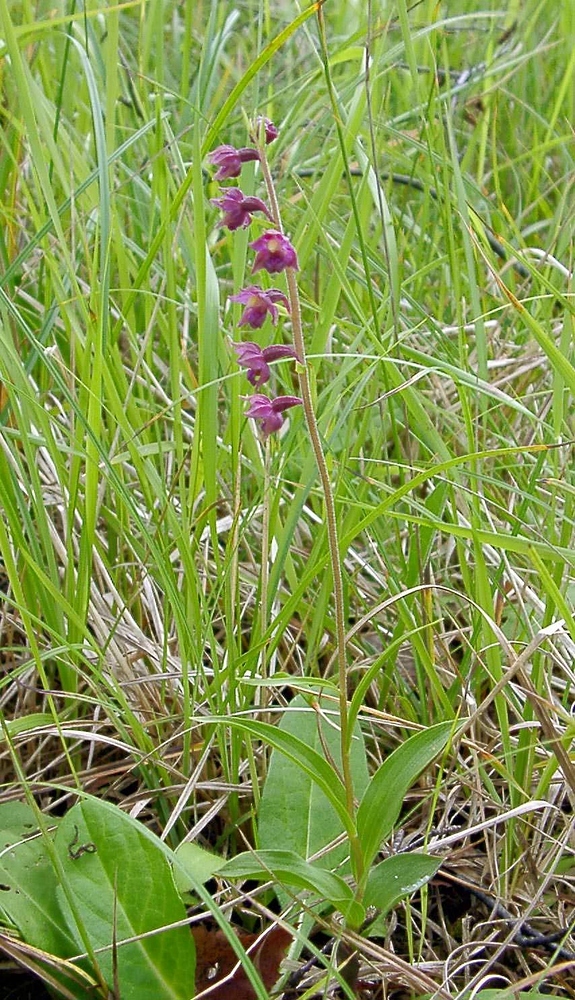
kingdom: Plantae
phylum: Tracheophyta
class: Liliopsida
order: Asparagales
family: Orchidaceae
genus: Epipactis
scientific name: Epipactis atrorubens
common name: Dark-red helleborine
